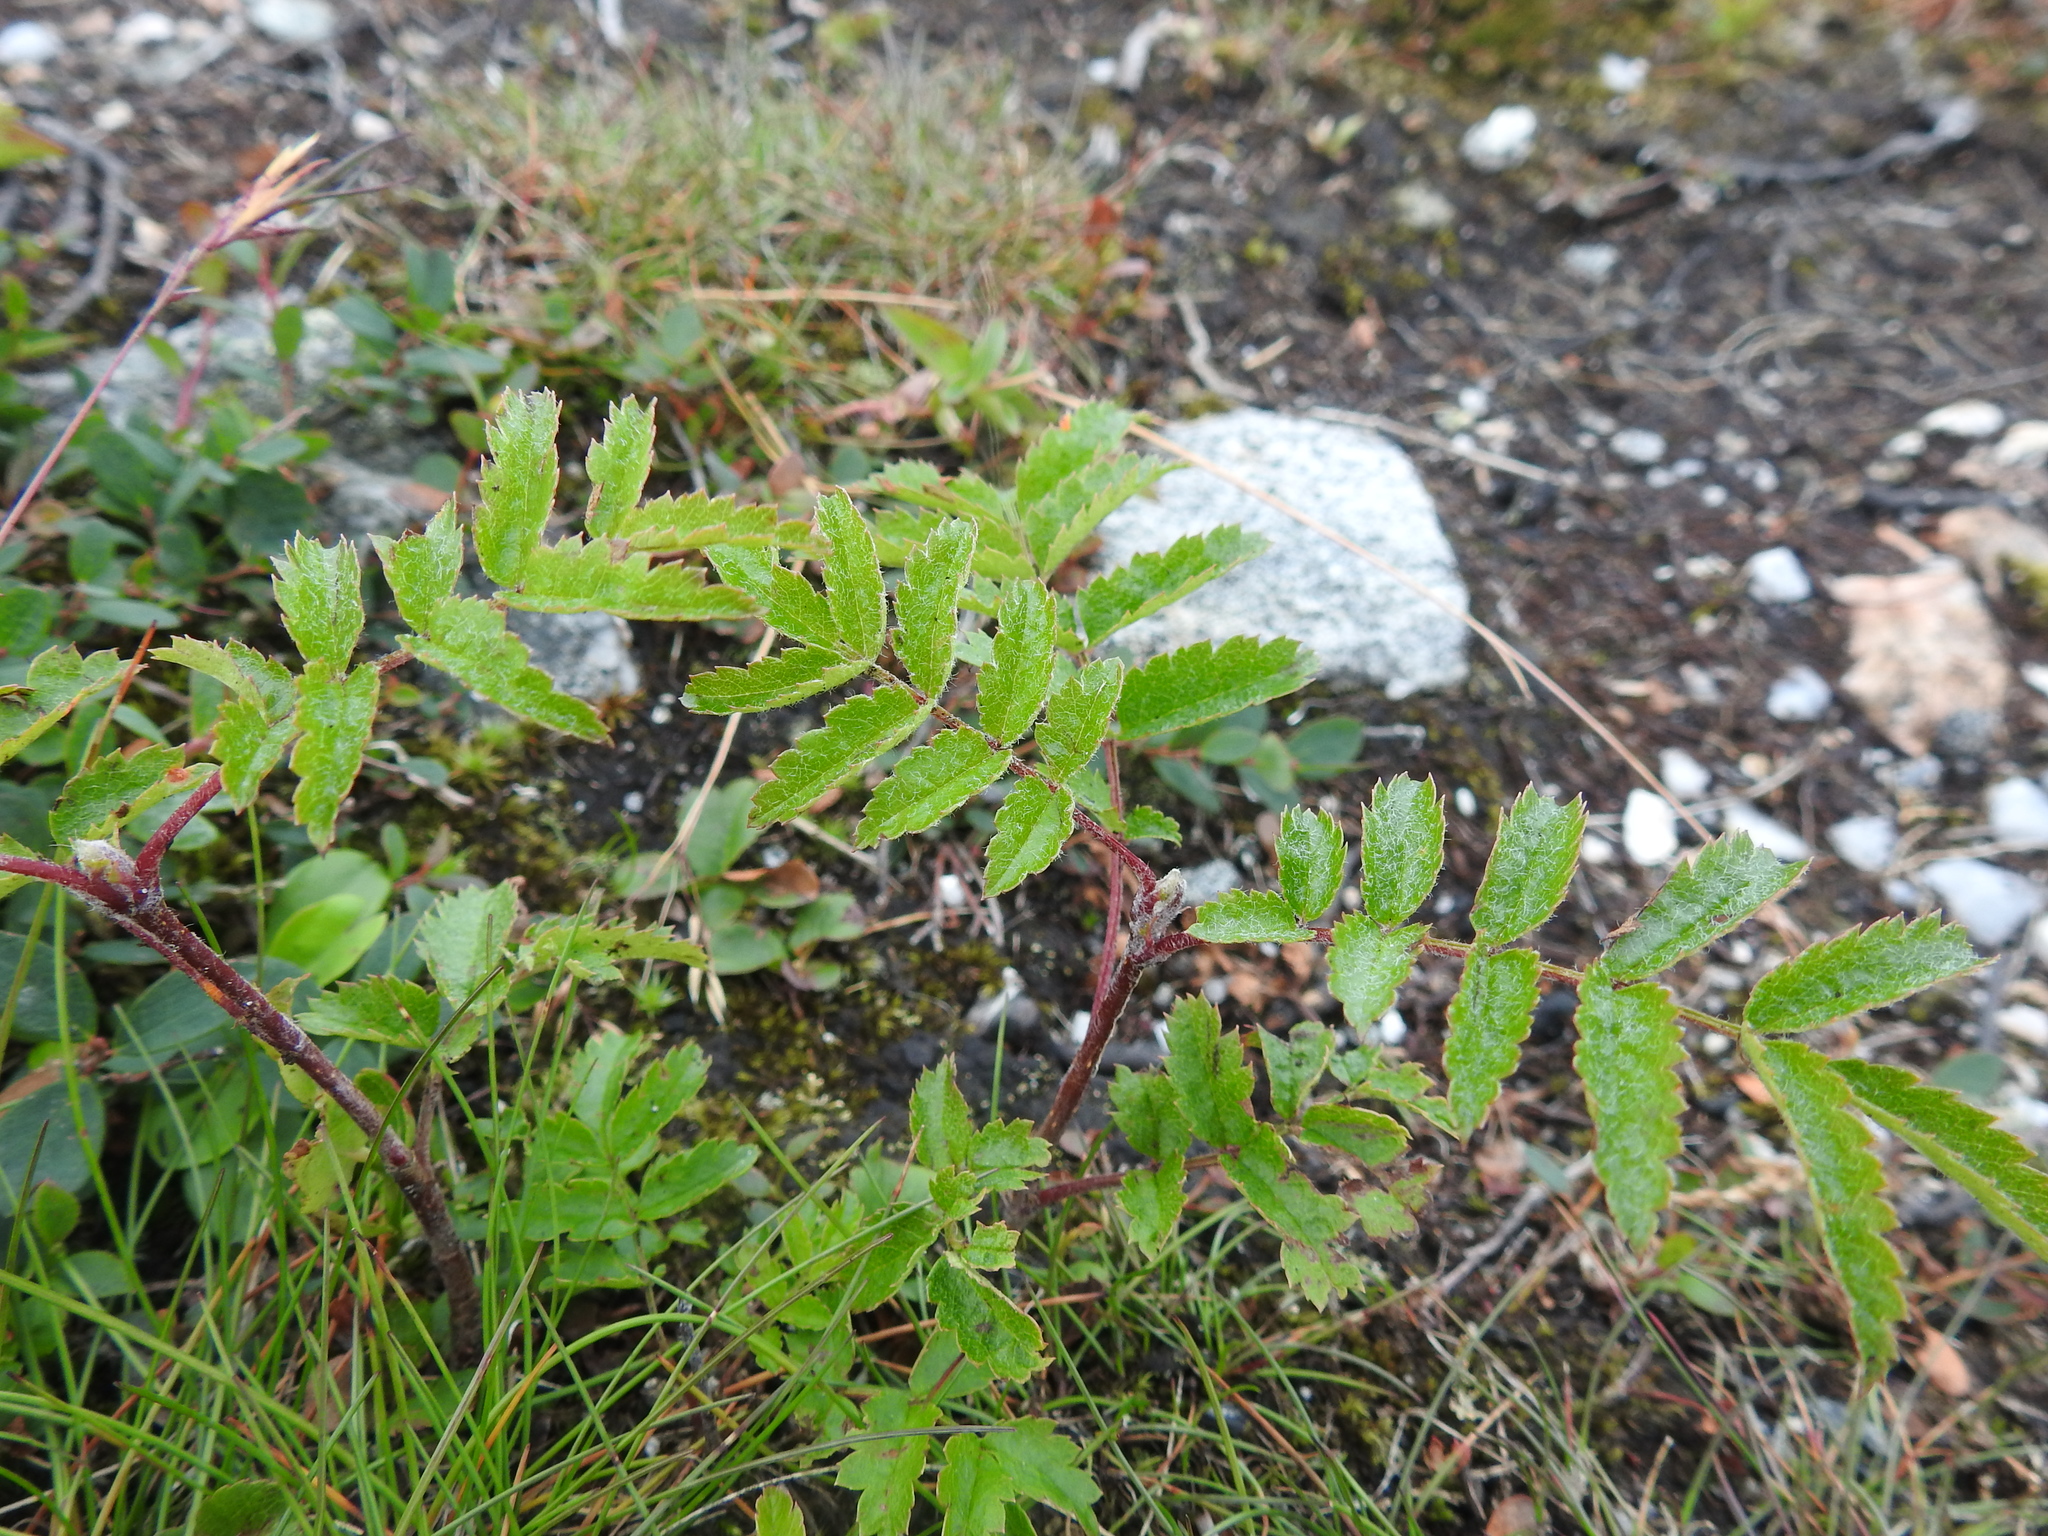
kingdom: Plantae
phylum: Tracheophyta
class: Magnoliopsida
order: Rosales
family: Rosaceae
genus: Sorbus
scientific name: Sorbus aucuparia
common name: Rowan
